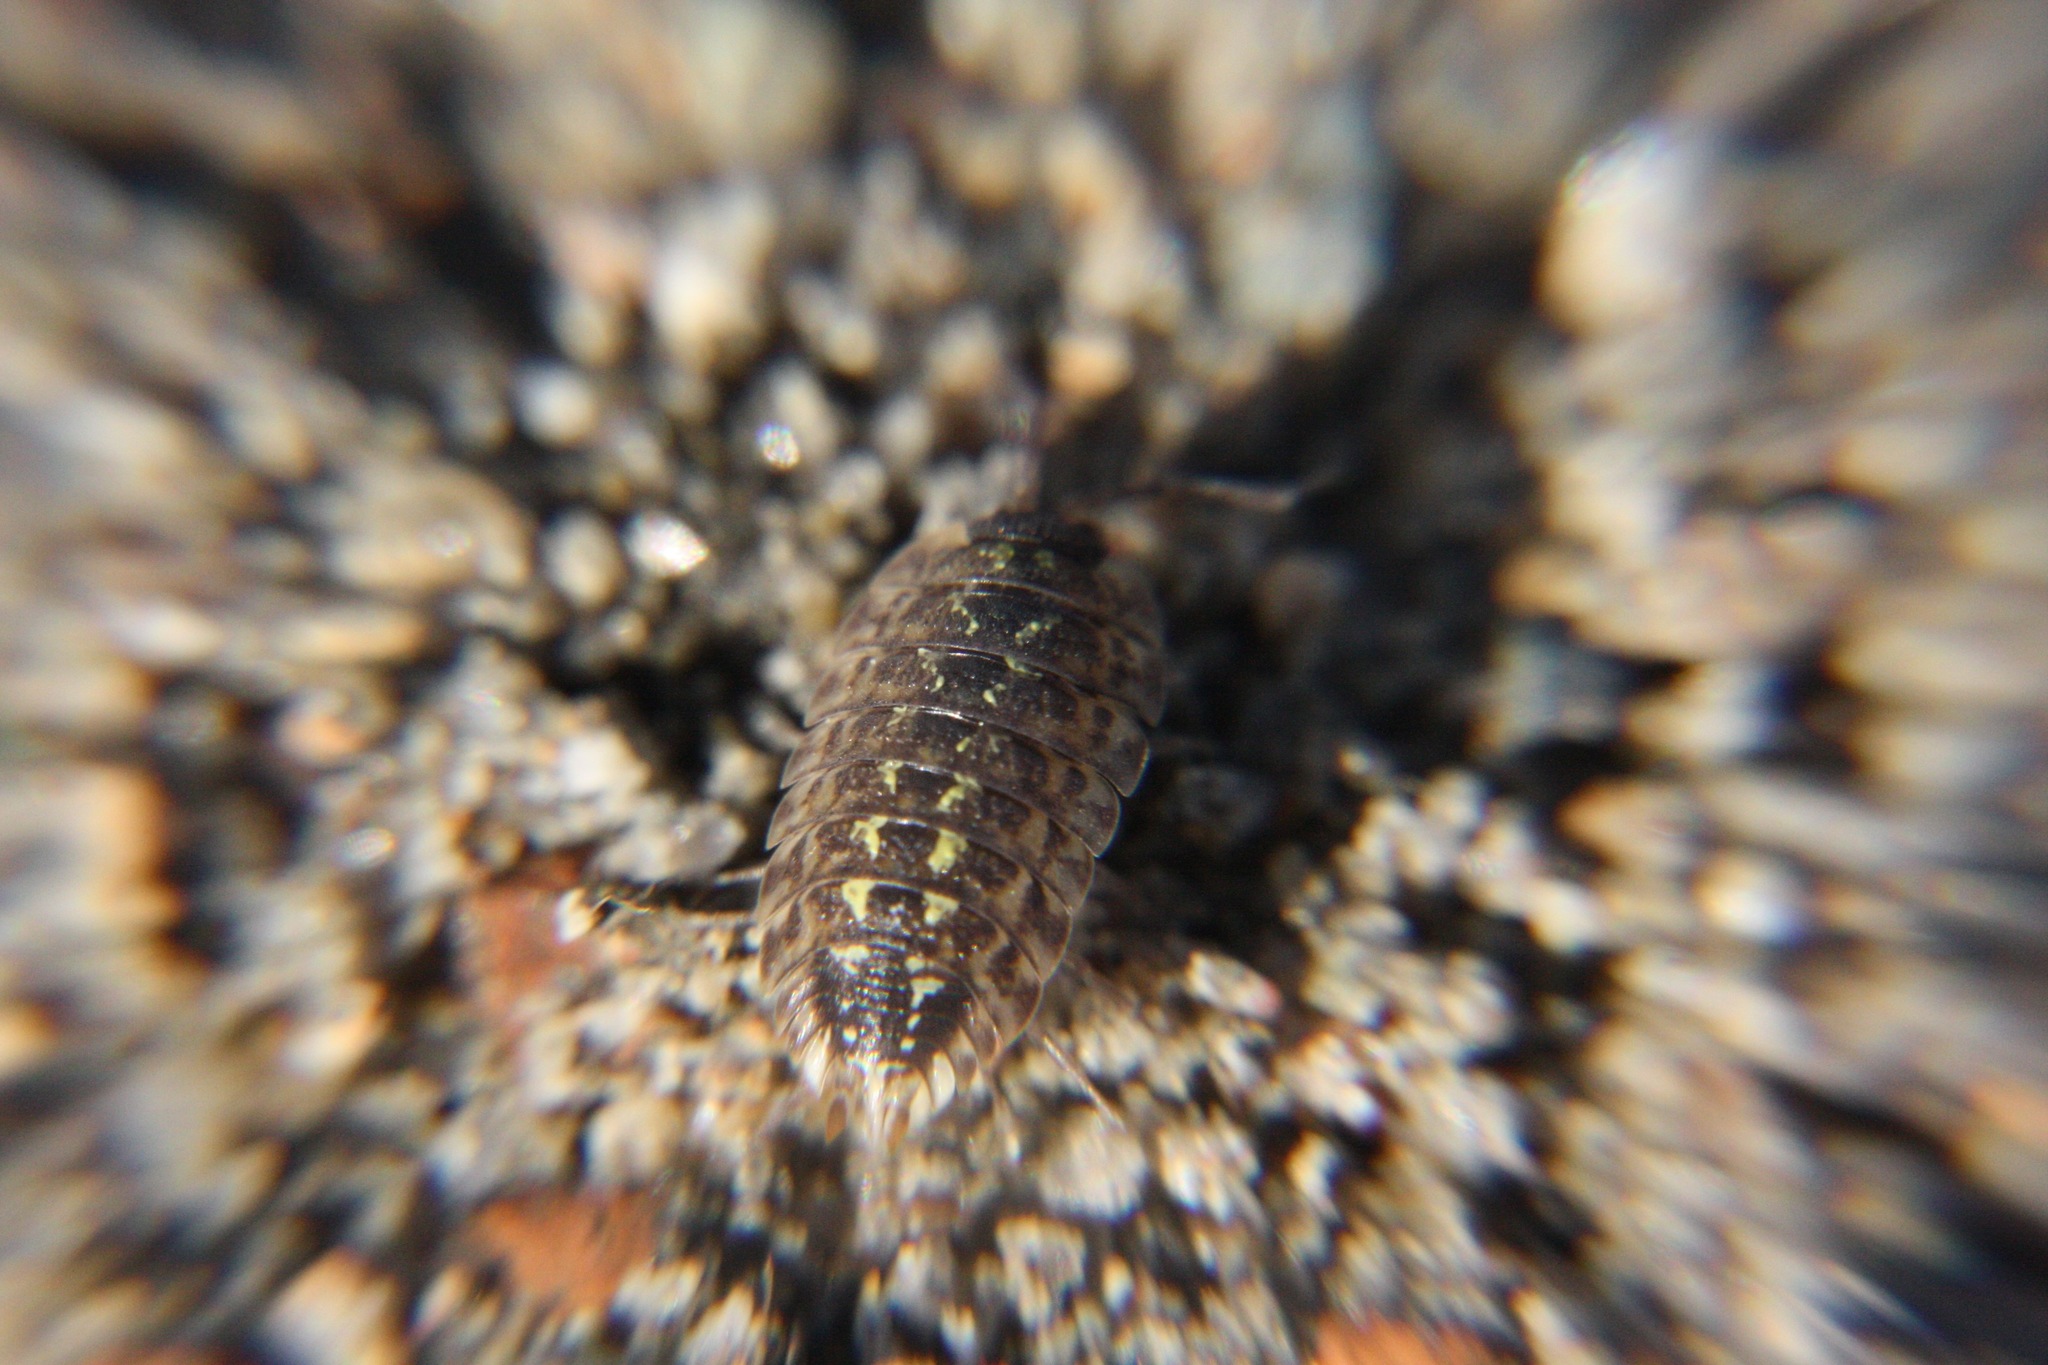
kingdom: Animalia
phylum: Arthropoda
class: Malacostraca
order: Isopoda
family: Porcellionidae
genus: Porcellio
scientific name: Porcellio spinicornis
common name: Painted woodlouse
